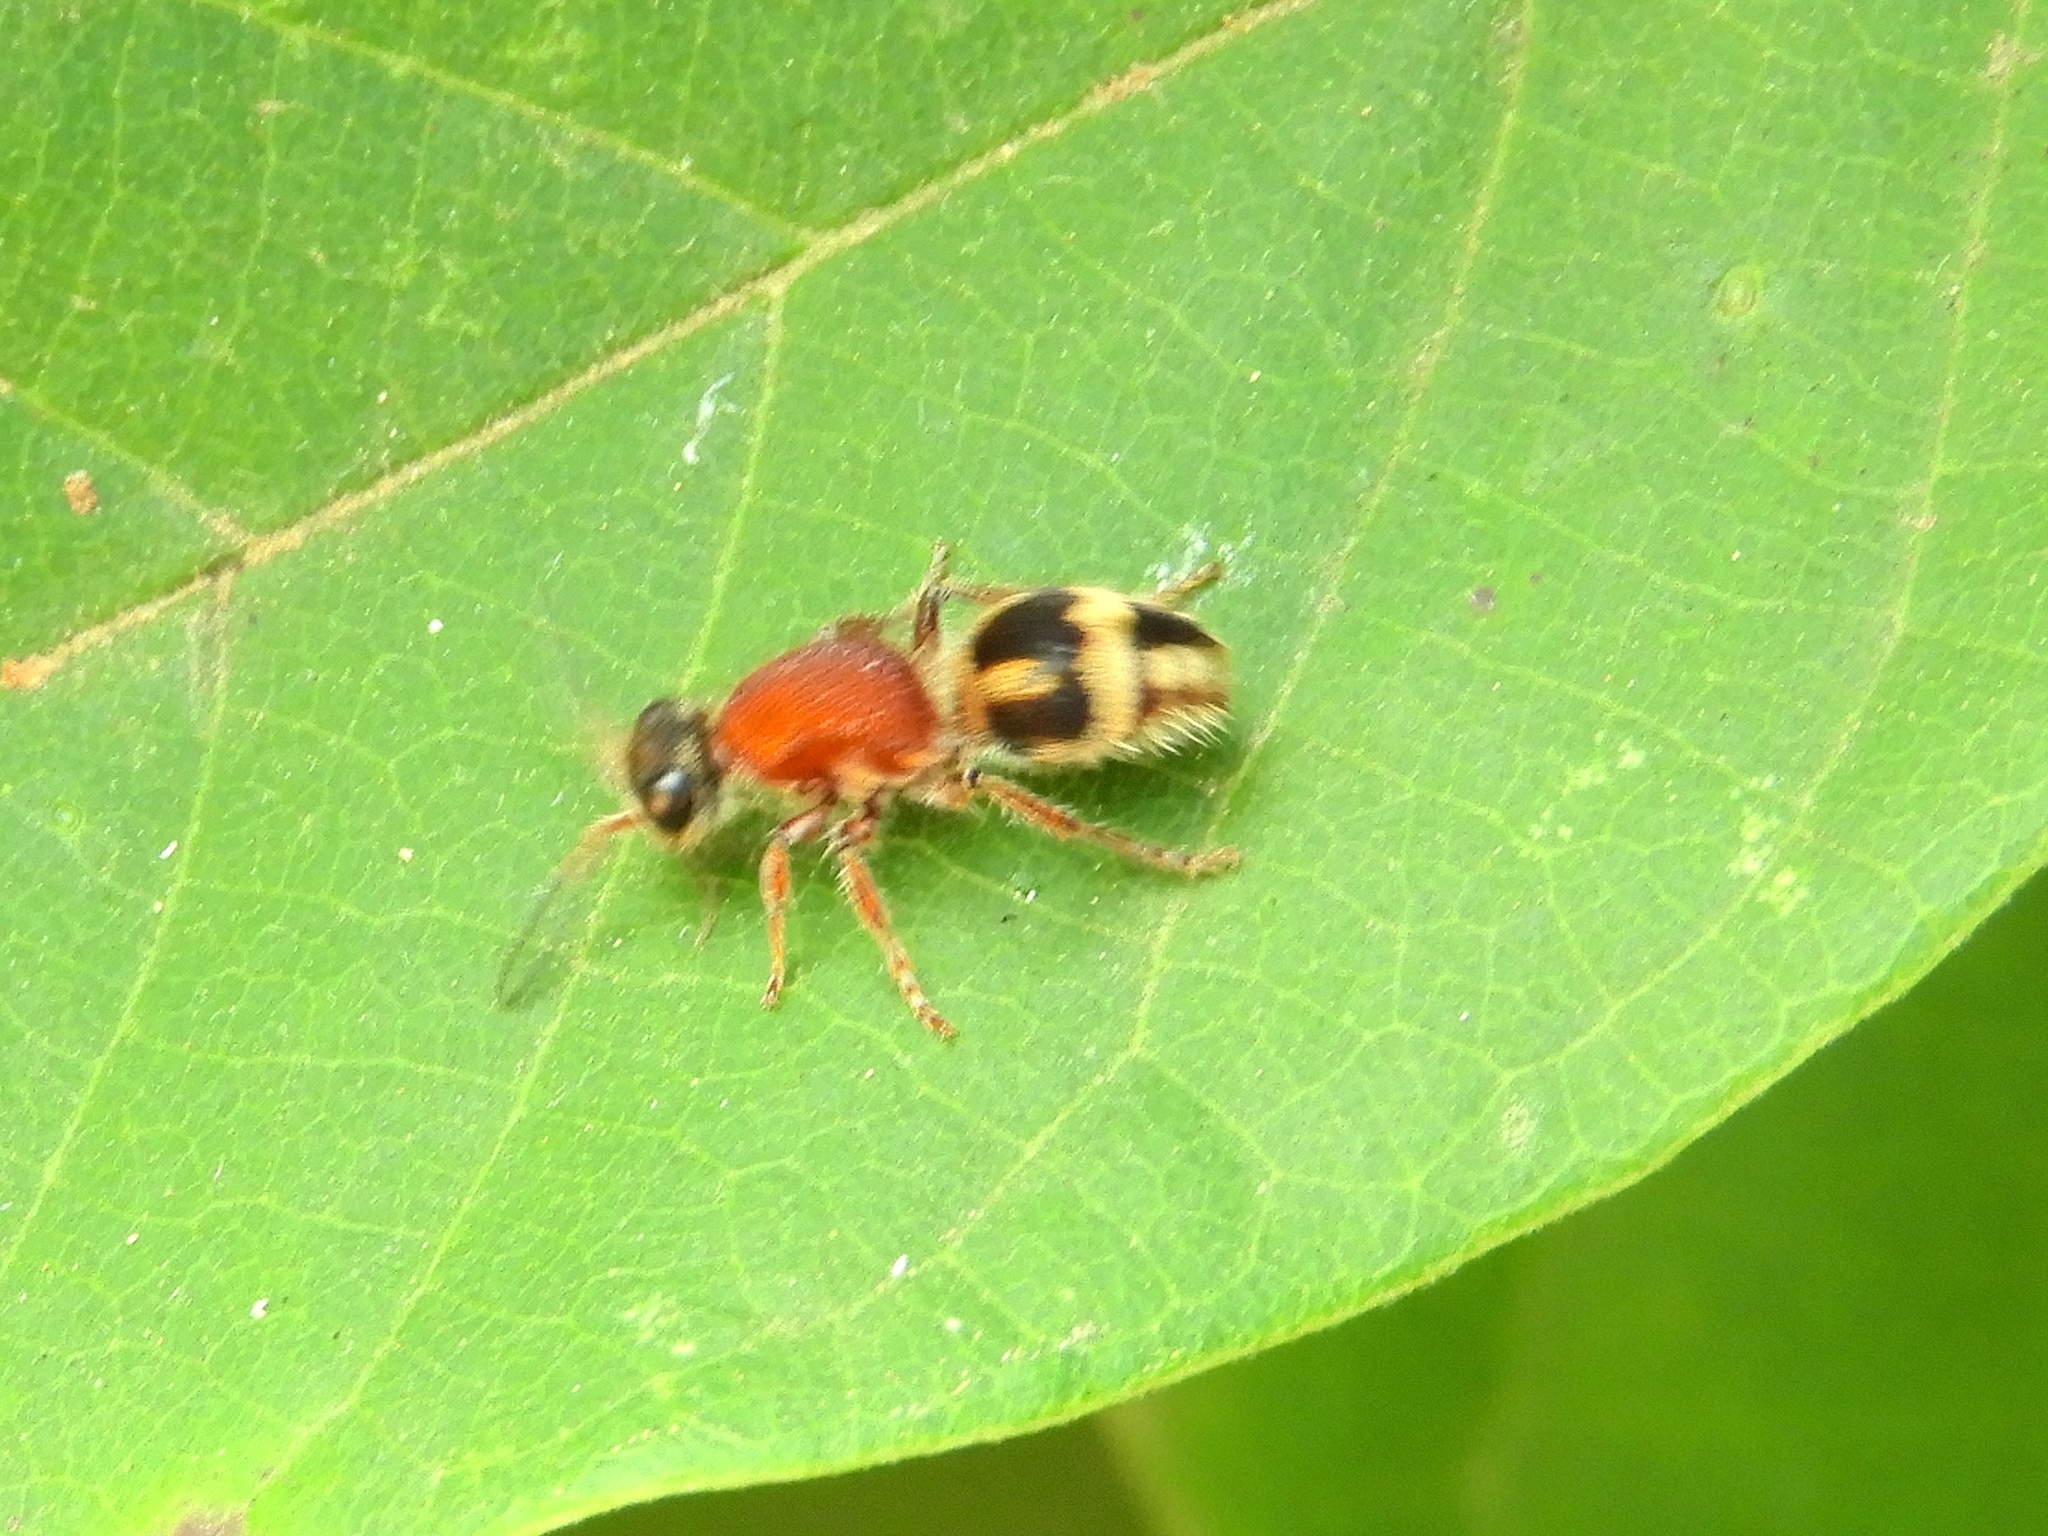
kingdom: Animalia
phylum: Arthropoda
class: Insecta
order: Hymenoptera
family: Mutillidae
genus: Timulla
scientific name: Timulla
